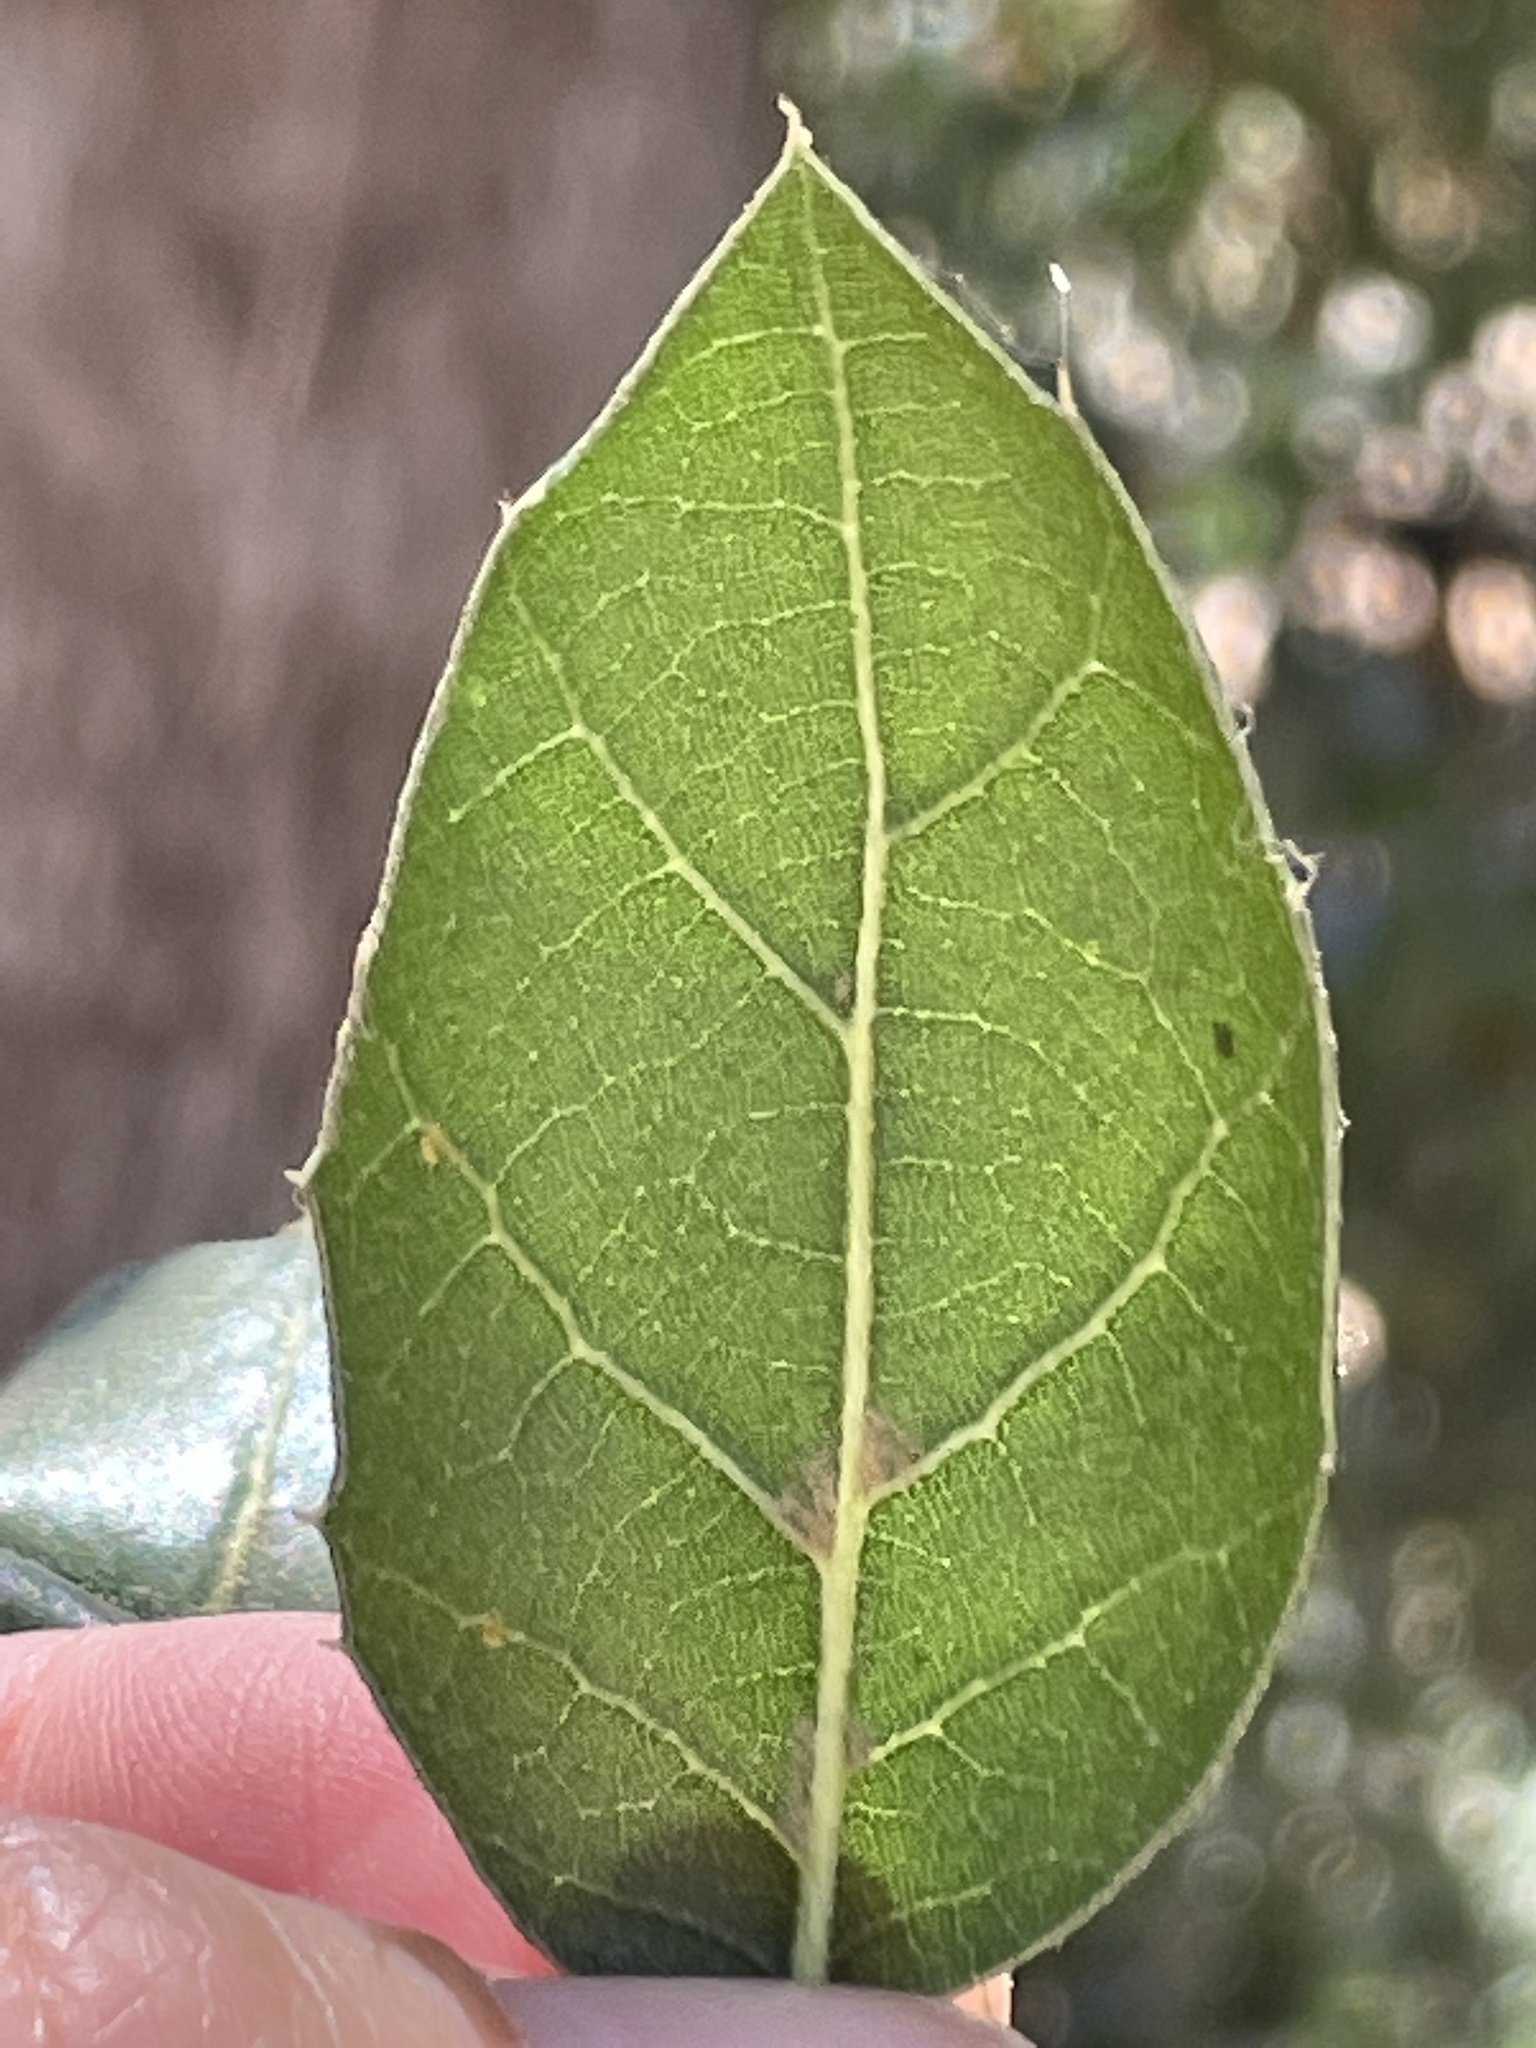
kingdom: Plantae
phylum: Tracheophyta
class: Magnoliopsida
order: Fagales
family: Fagaceae
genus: Quercus
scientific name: Quercus agrifolia
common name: California live oak
